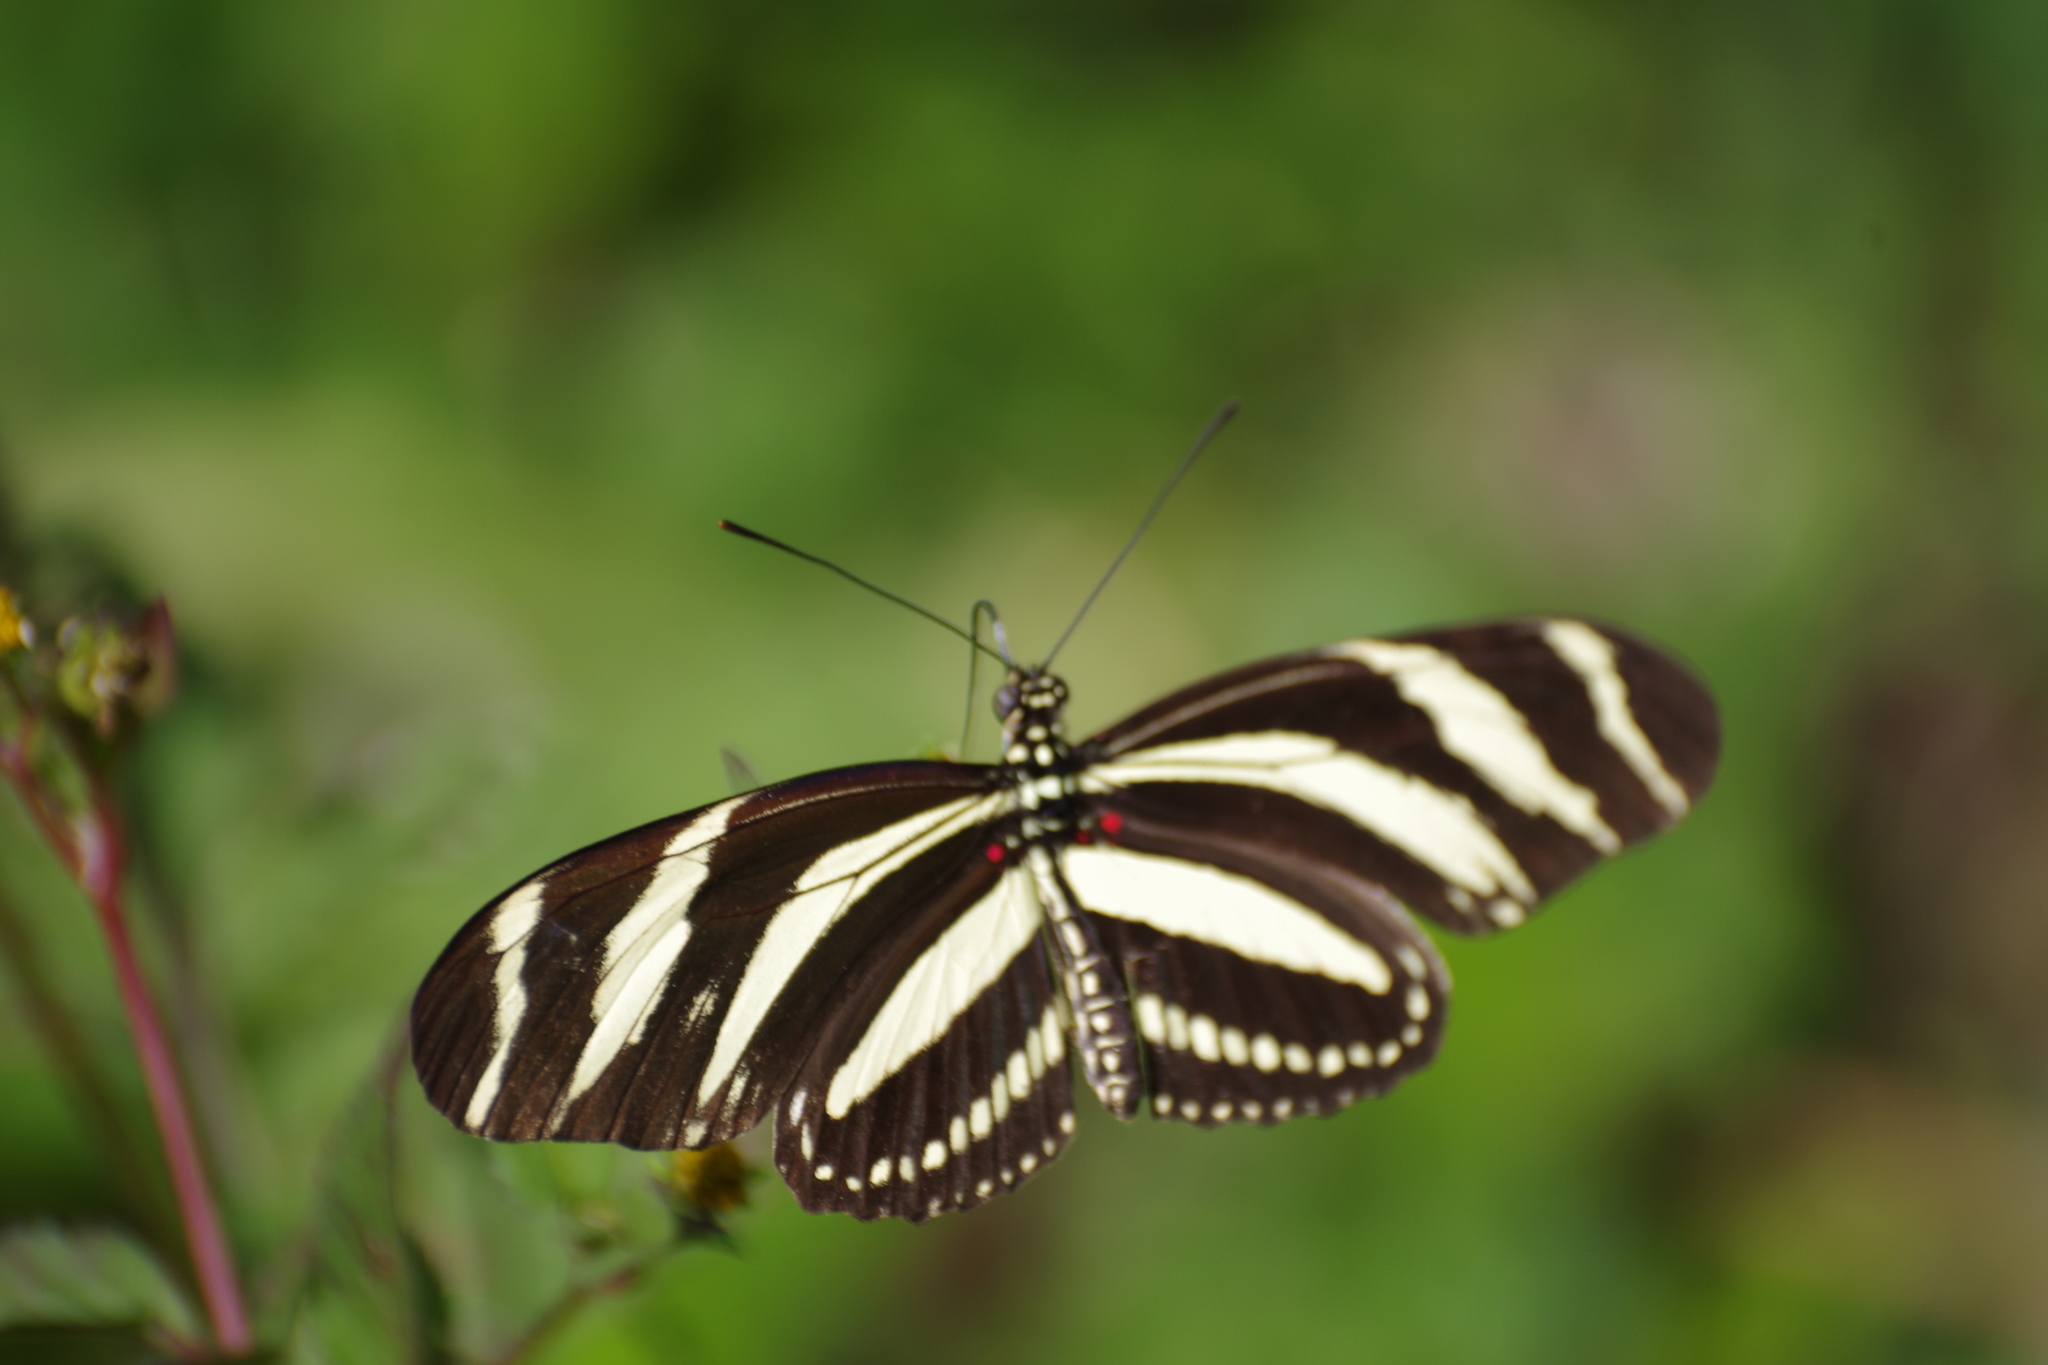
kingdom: Animalia
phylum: Arthropoda
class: Insecta
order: Lepidoptera
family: Nymphalidae
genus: Heliconius
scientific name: Heliconius charithonia
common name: Zebra long wing
